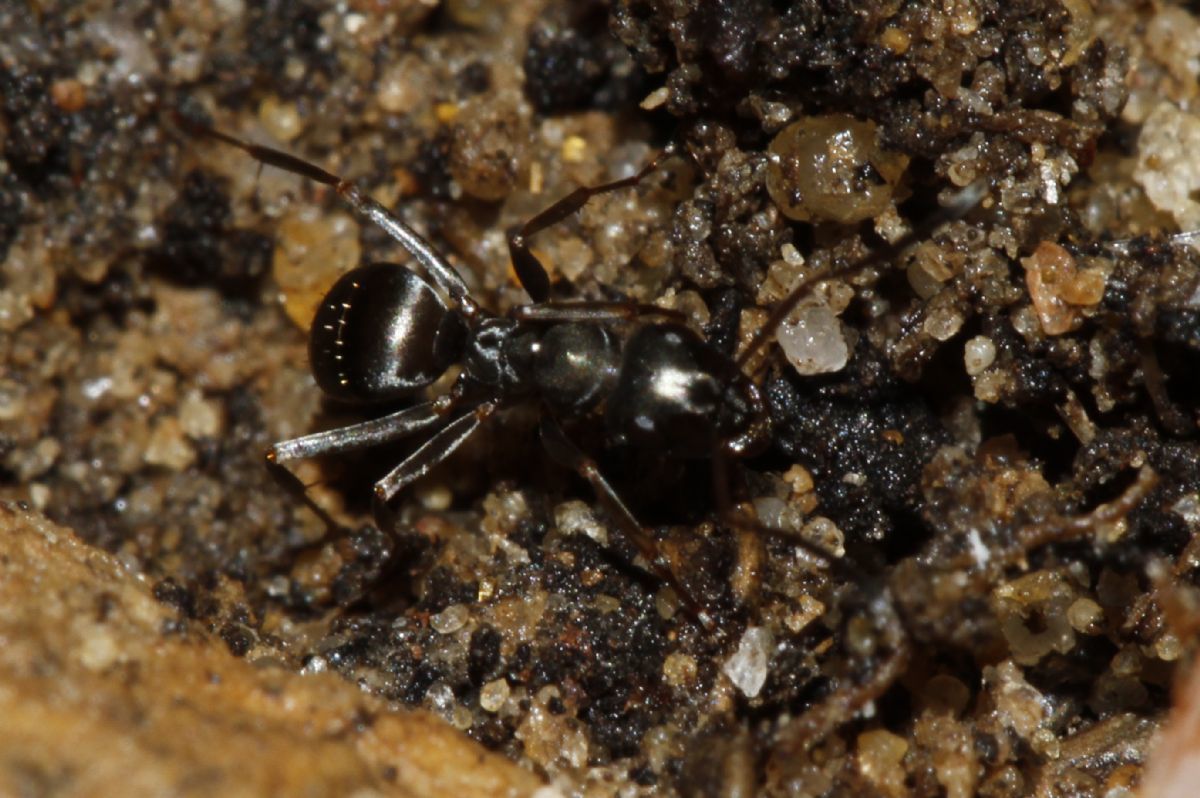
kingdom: Animalia
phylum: Arthropoda
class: Insecta
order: Hymenoptera
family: Formicidae
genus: Formica
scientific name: Formica fusca
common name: Silky ant
